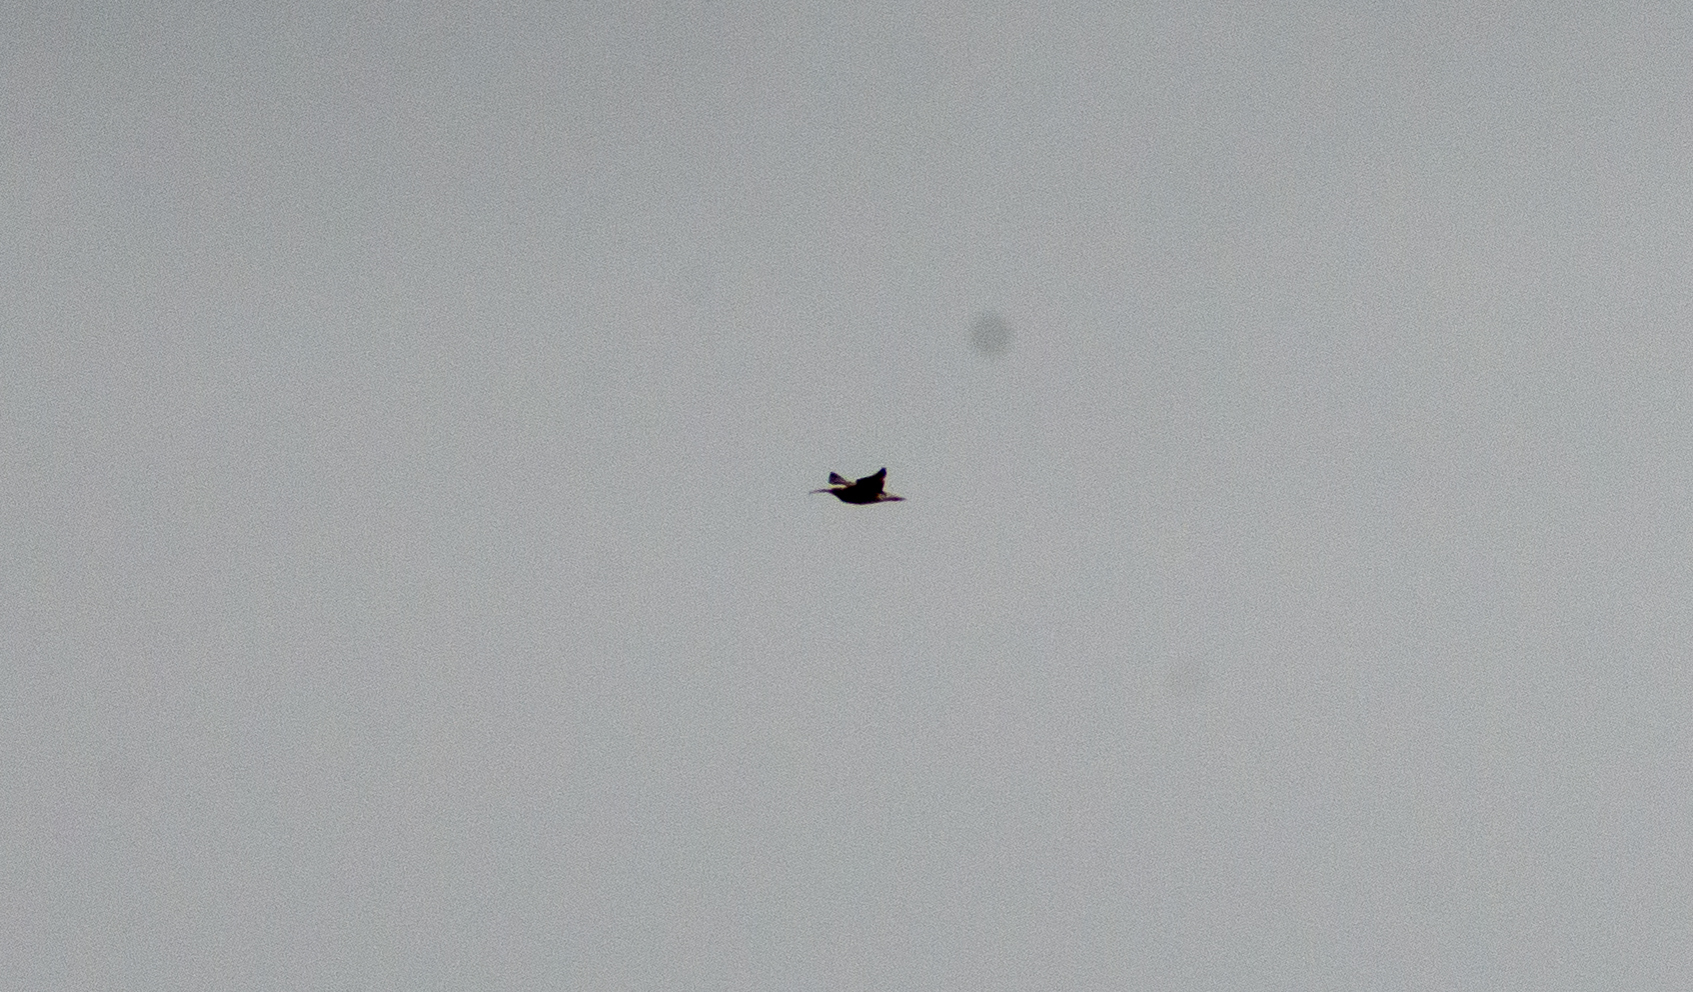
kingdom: Animalia
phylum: Chordata
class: Aves
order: Charadriiformes
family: Scolopacidae
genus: Numenius
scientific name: Numenius arquata
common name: Eurasian curlew
